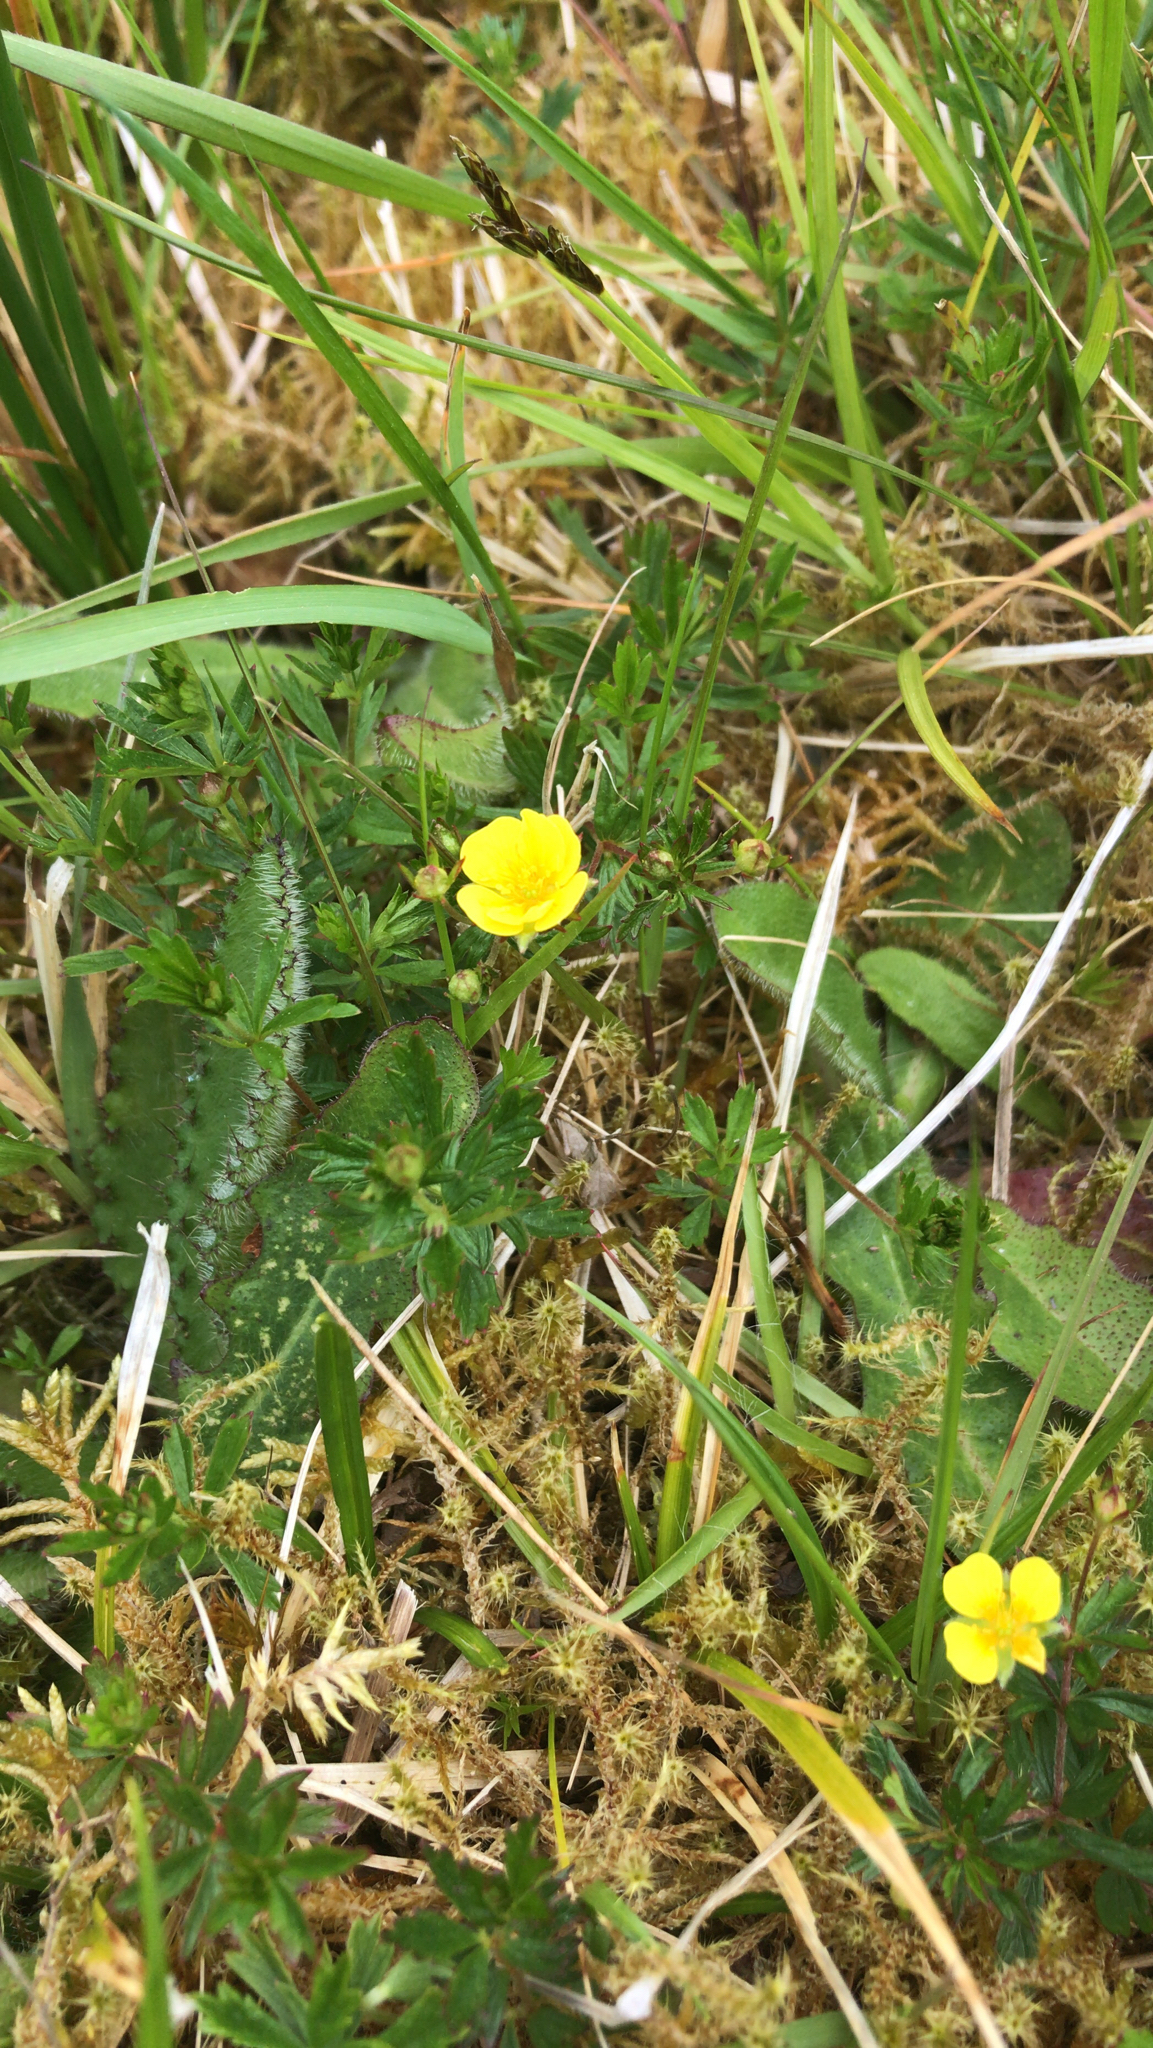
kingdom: Plantae
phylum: Tracheophyta
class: Magnoliopsida
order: Rosales
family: Rosaceae
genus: Potentilla
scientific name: Potentilla erecta
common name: Tormentil
